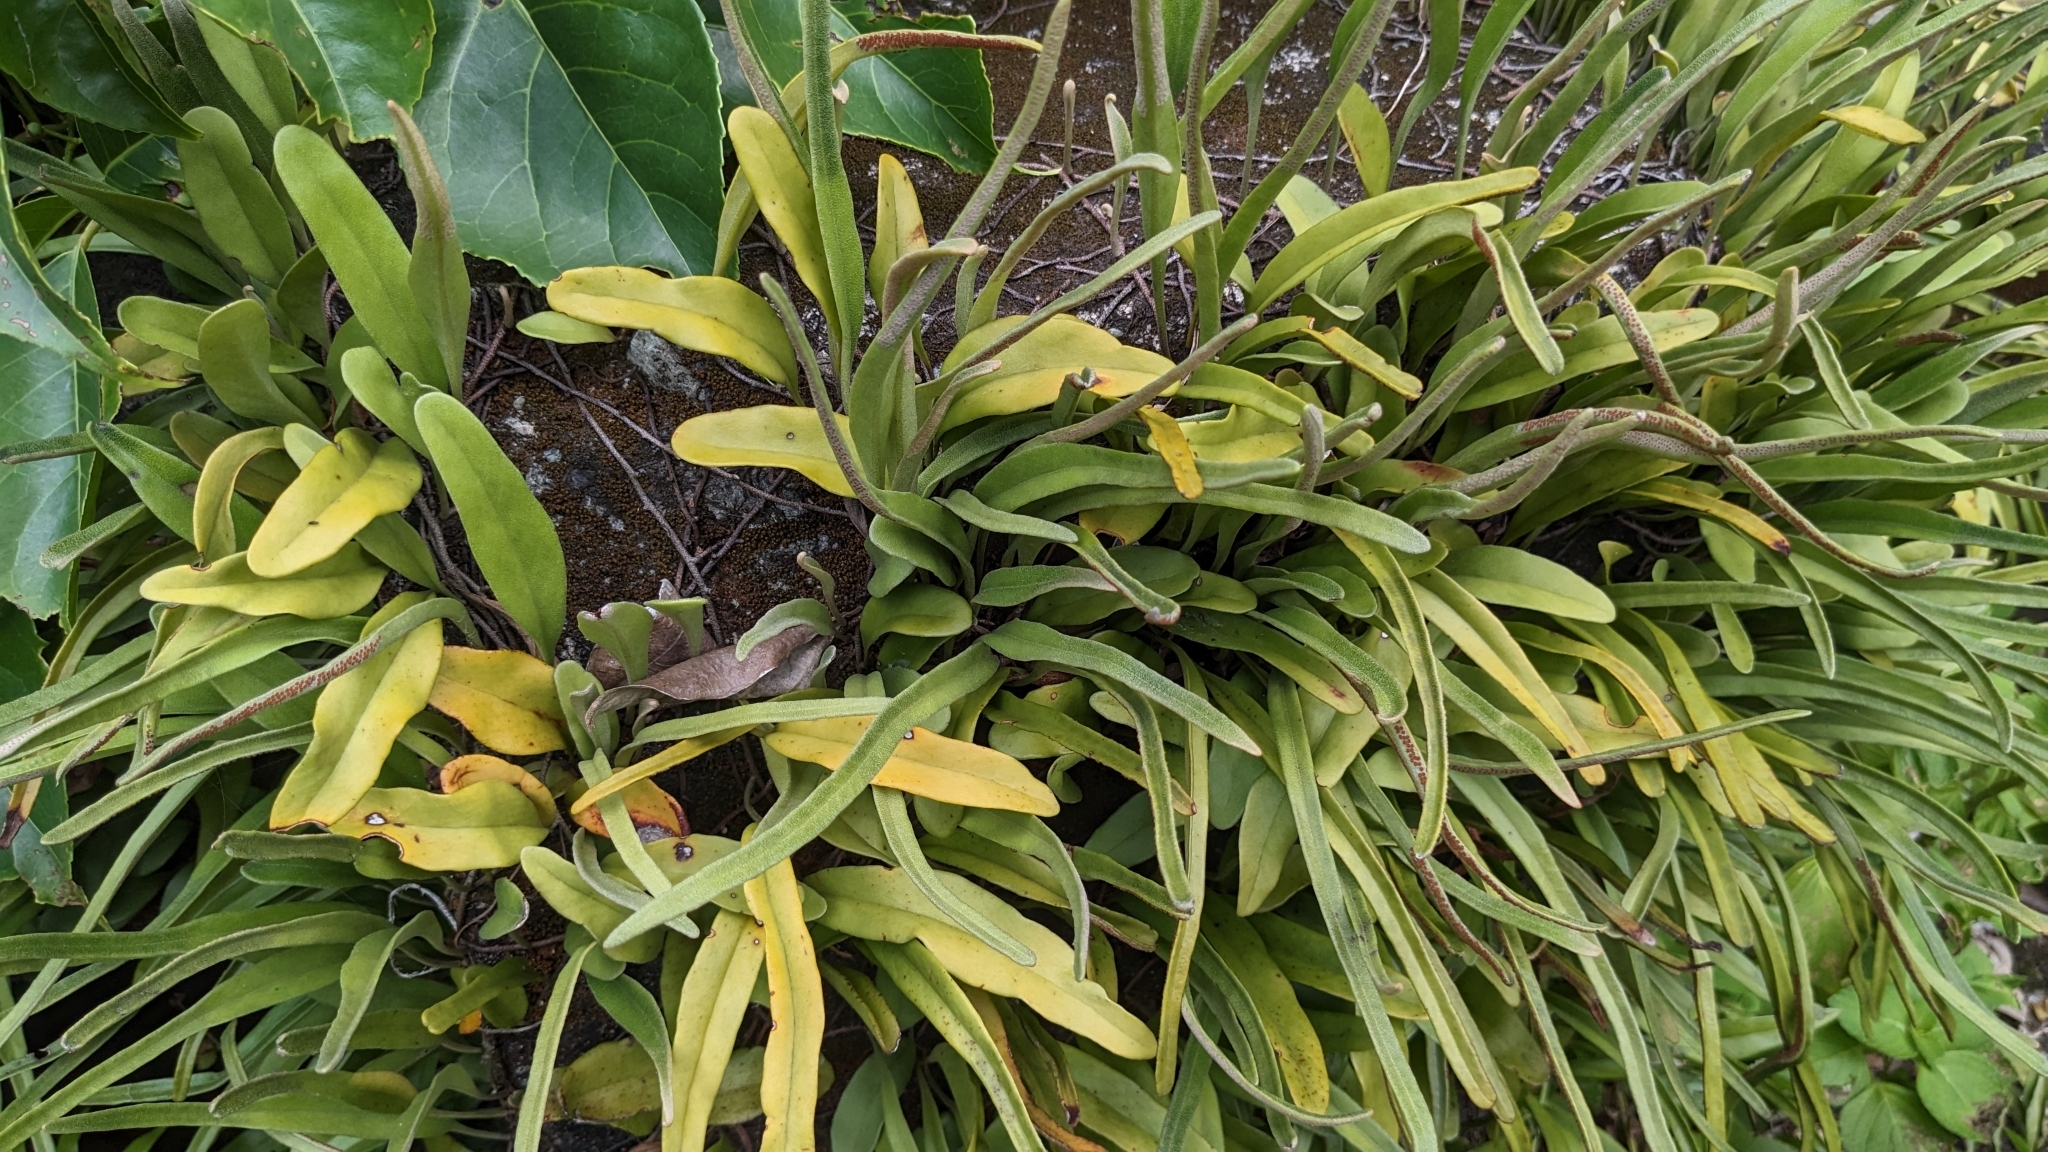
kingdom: Plantae
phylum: Tracheophyta
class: Polypodiopsida
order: Polypodiales
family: Polypodiaceae
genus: Pyrrosia
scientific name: Pyrrosia lanceolata
